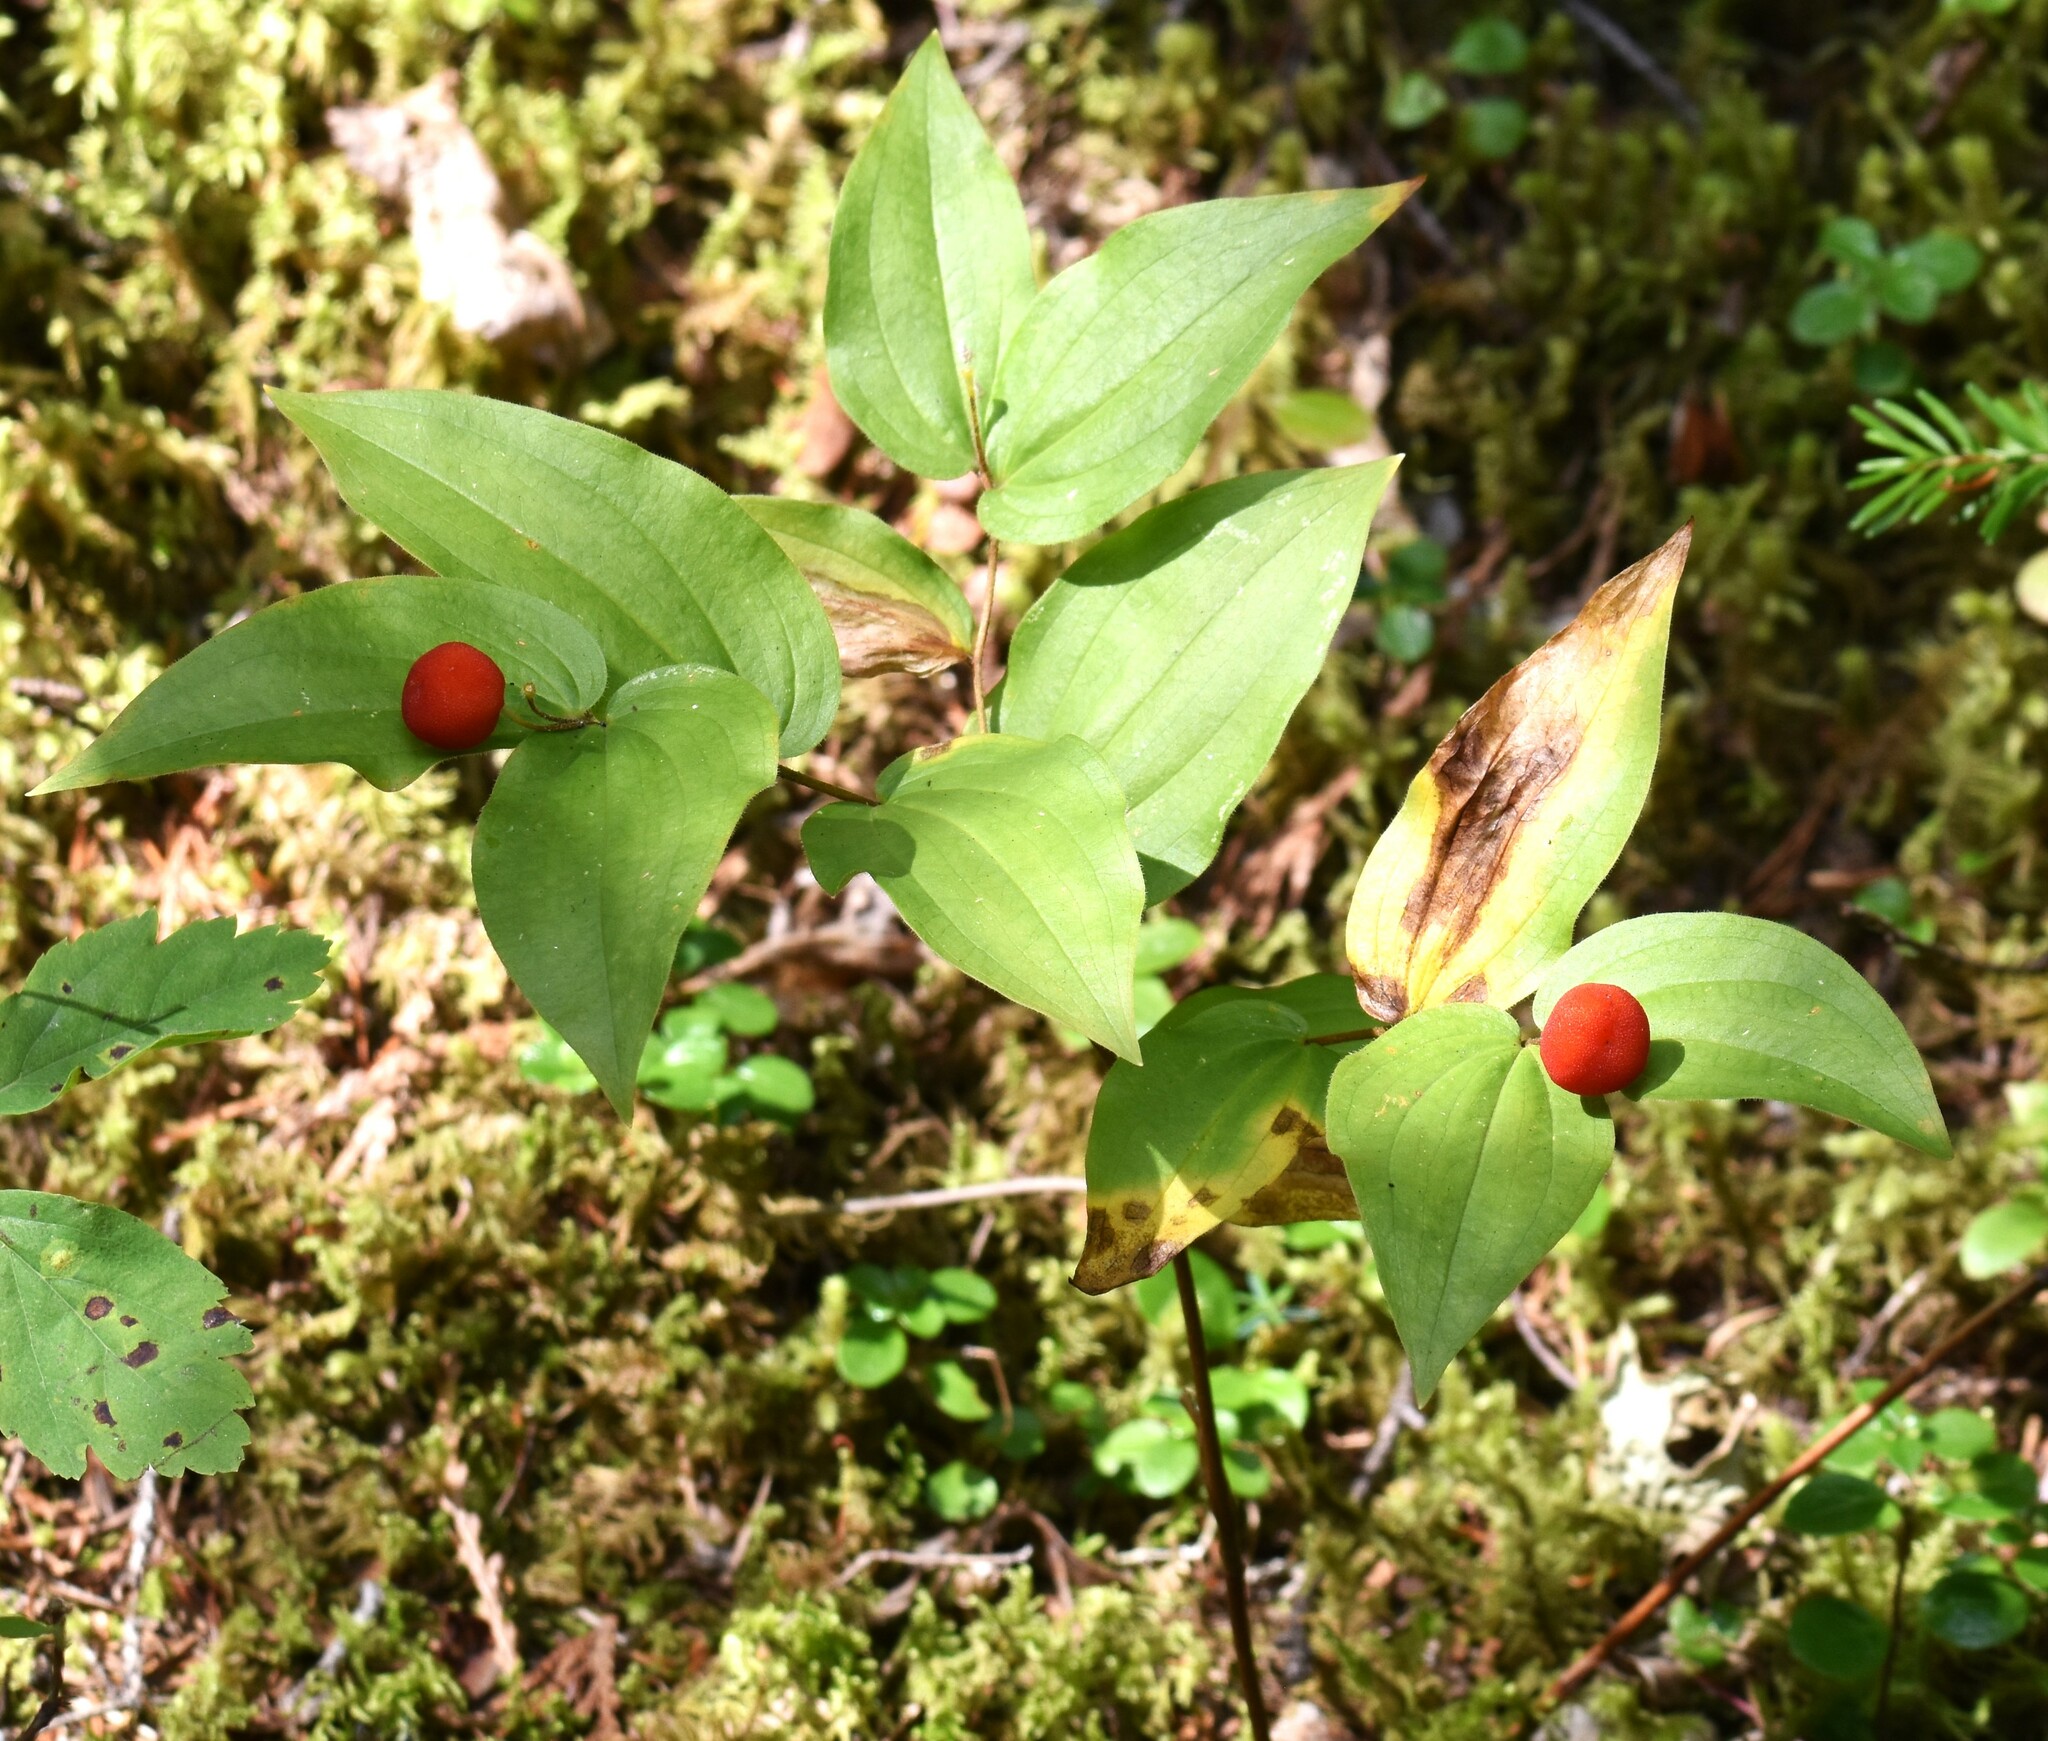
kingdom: Plantae
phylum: Tracheophyta
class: Liliopsida
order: Liliales
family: Liliaceae
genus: Prosartes
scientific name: Prosartes trachycarpa
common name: Rough-fruit fairy-bells
